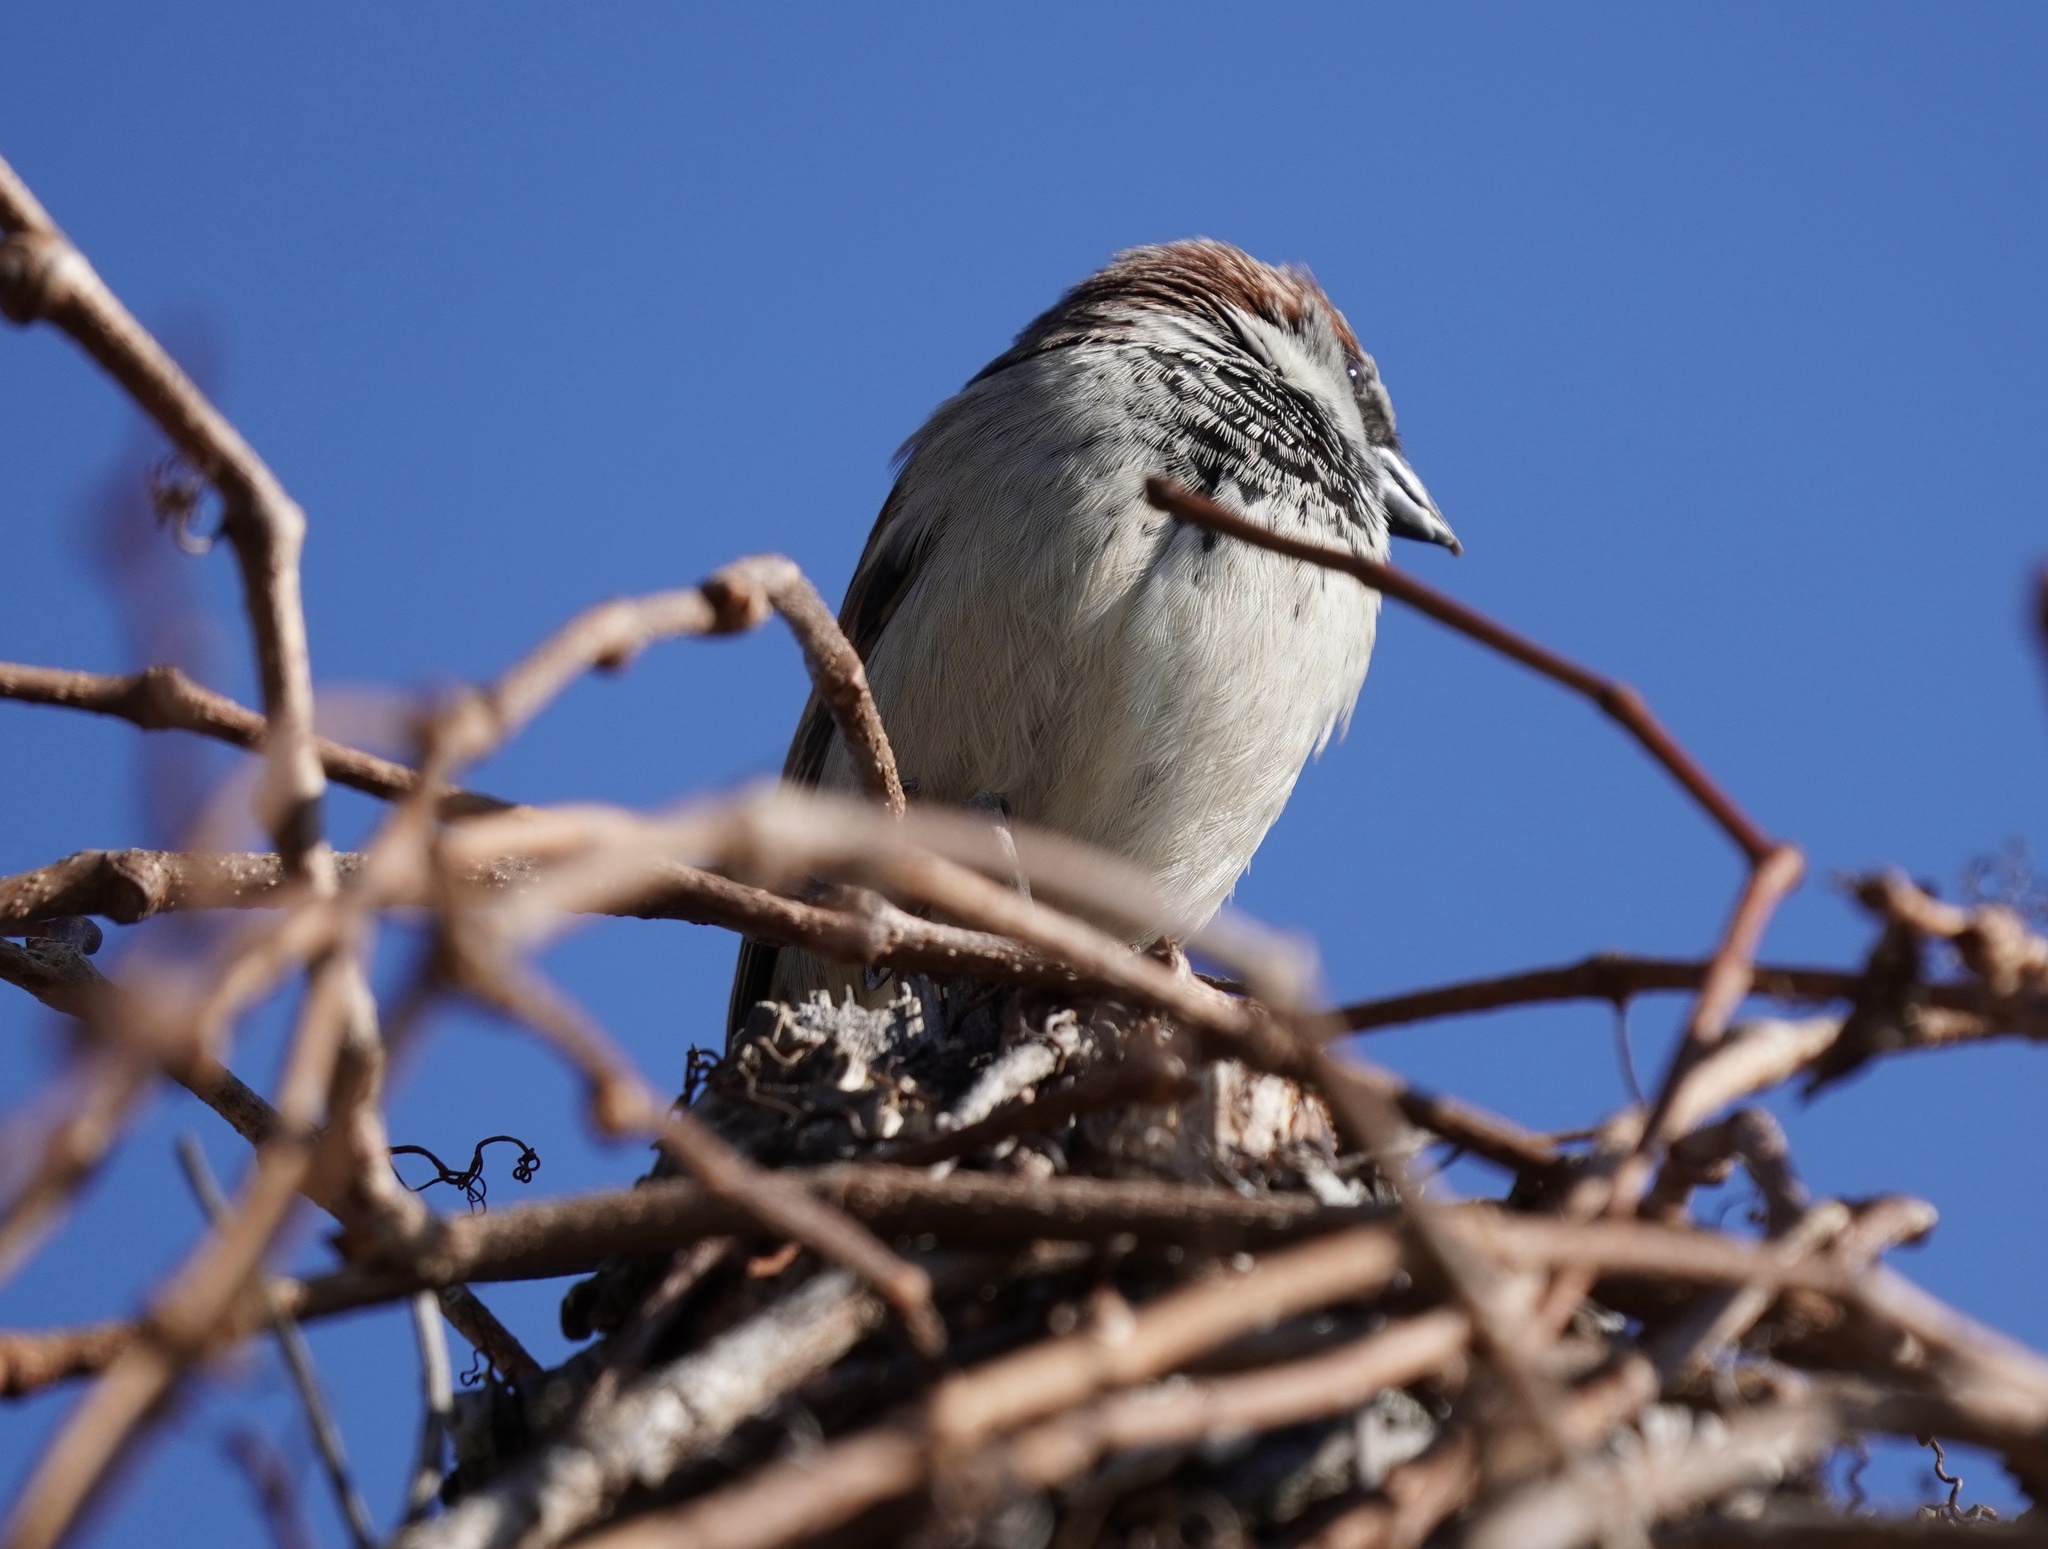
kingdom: Animalia
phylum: Chordata
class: Aves
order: Passeriformes
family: Passeridae
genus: Passer
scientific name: Passer domesticus
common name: House sparrow
